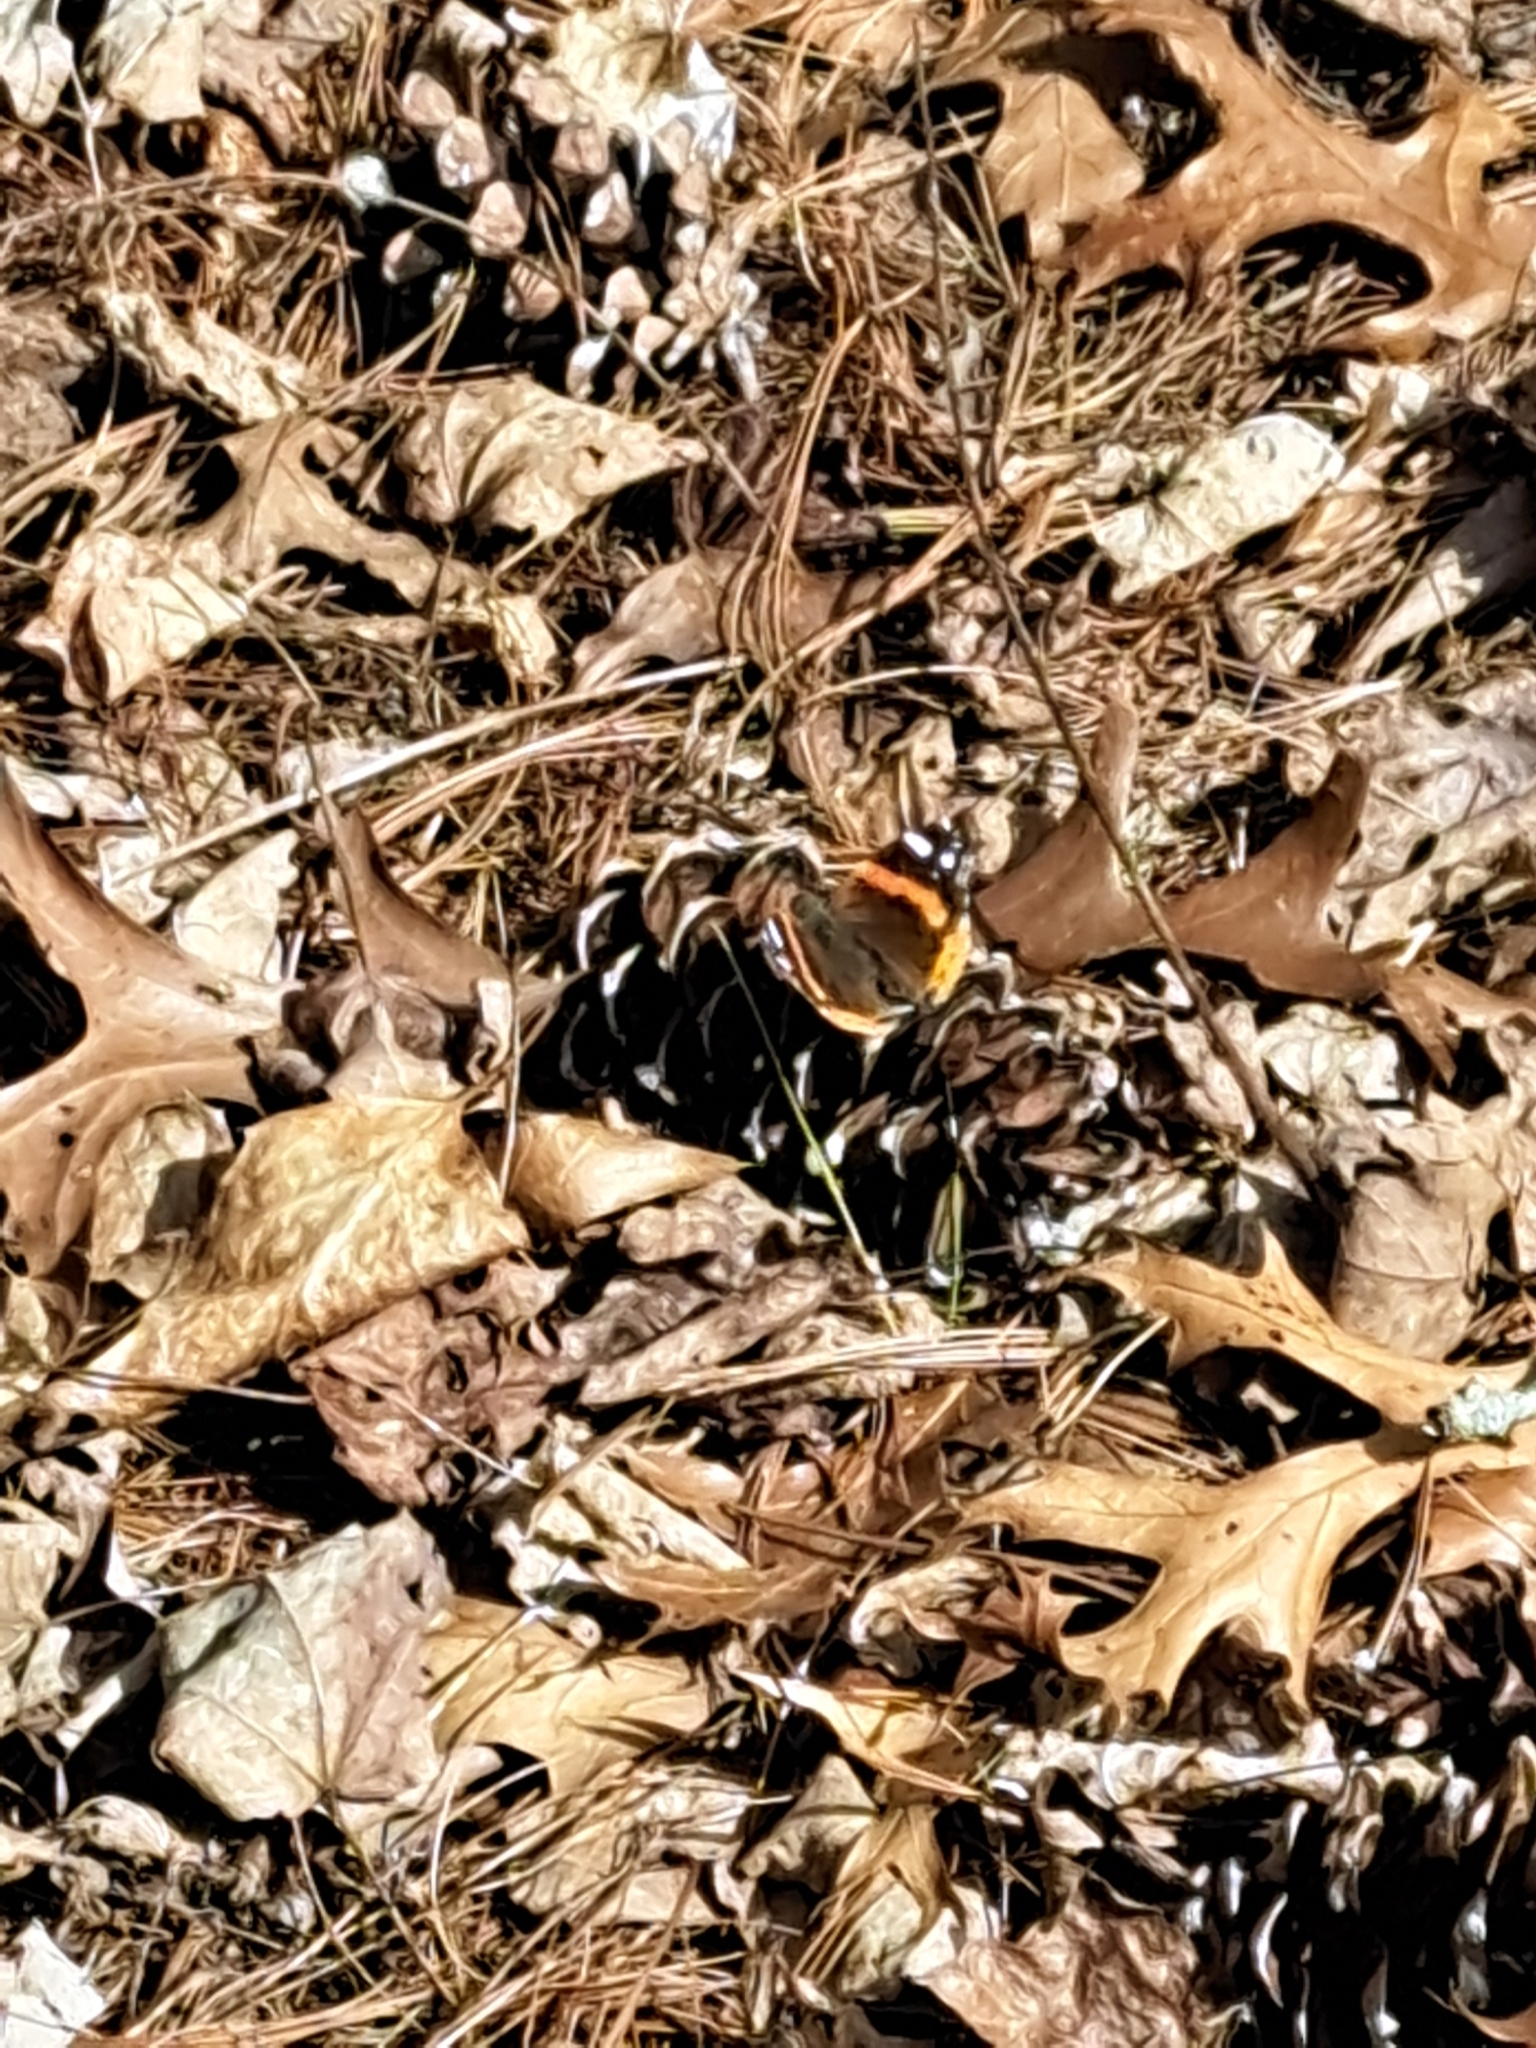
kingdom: Animalia
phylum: Arthropoda
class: Insecta
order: Lepidoptera
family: Nymphalidae
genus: Vanessa
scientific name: Vanessa atalanta
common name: Red admiral
